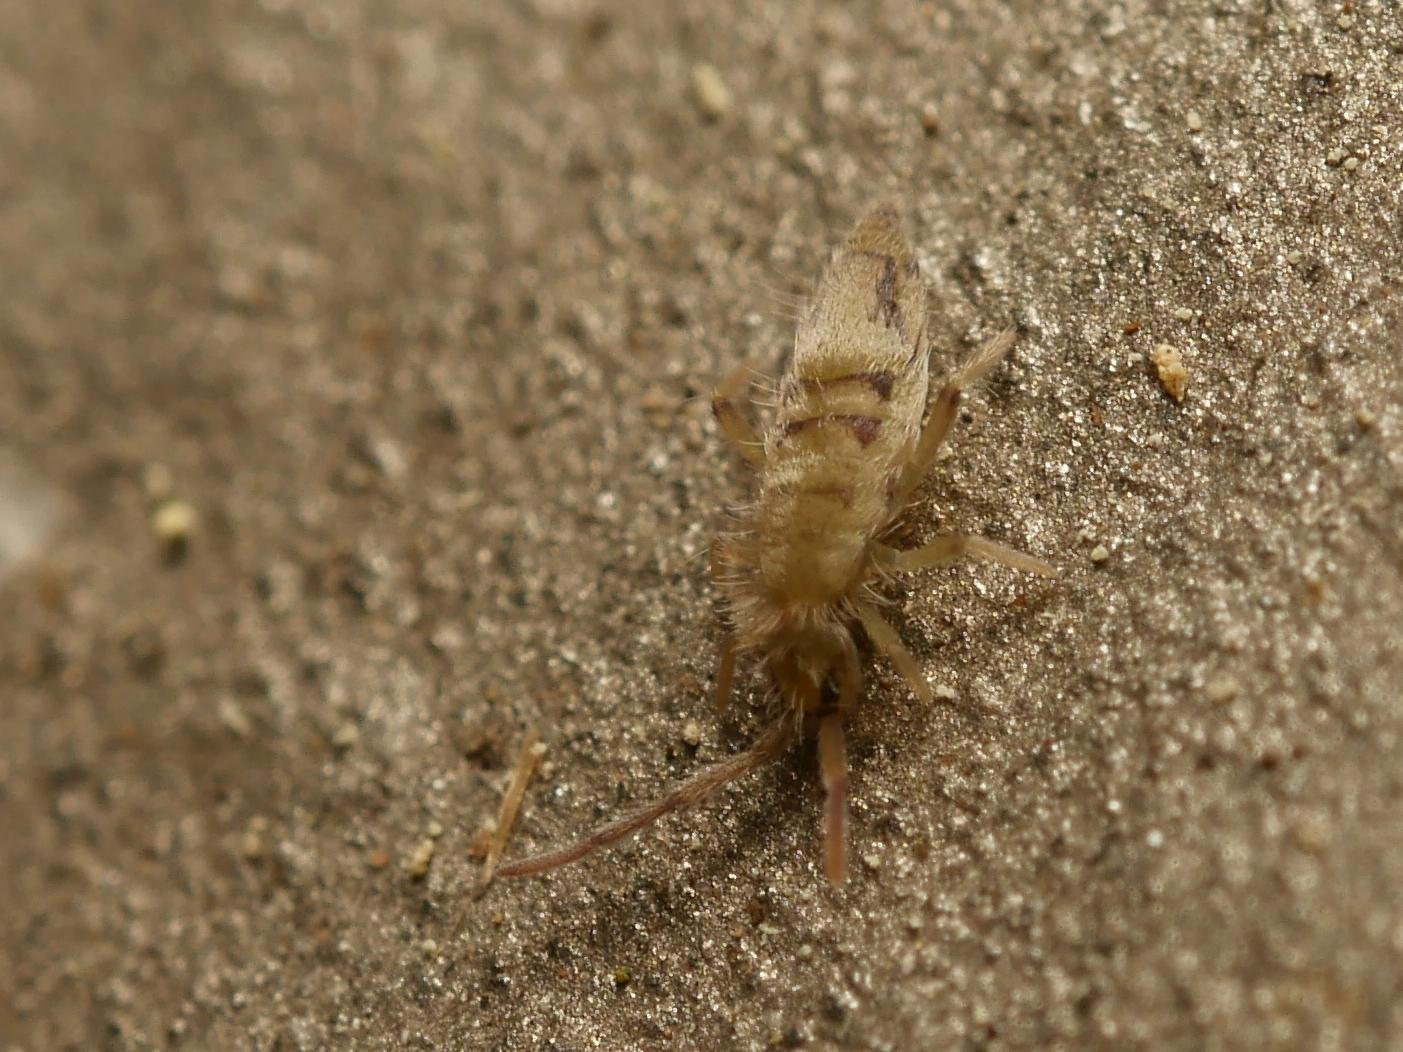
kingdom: Animalia
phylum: Arthropoda
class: Collembola
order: Entomobryomorpha
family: Entomobryidae
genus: Entomobrya
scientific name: Entomobrya nivalis
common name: Cosmopolitan springtail
